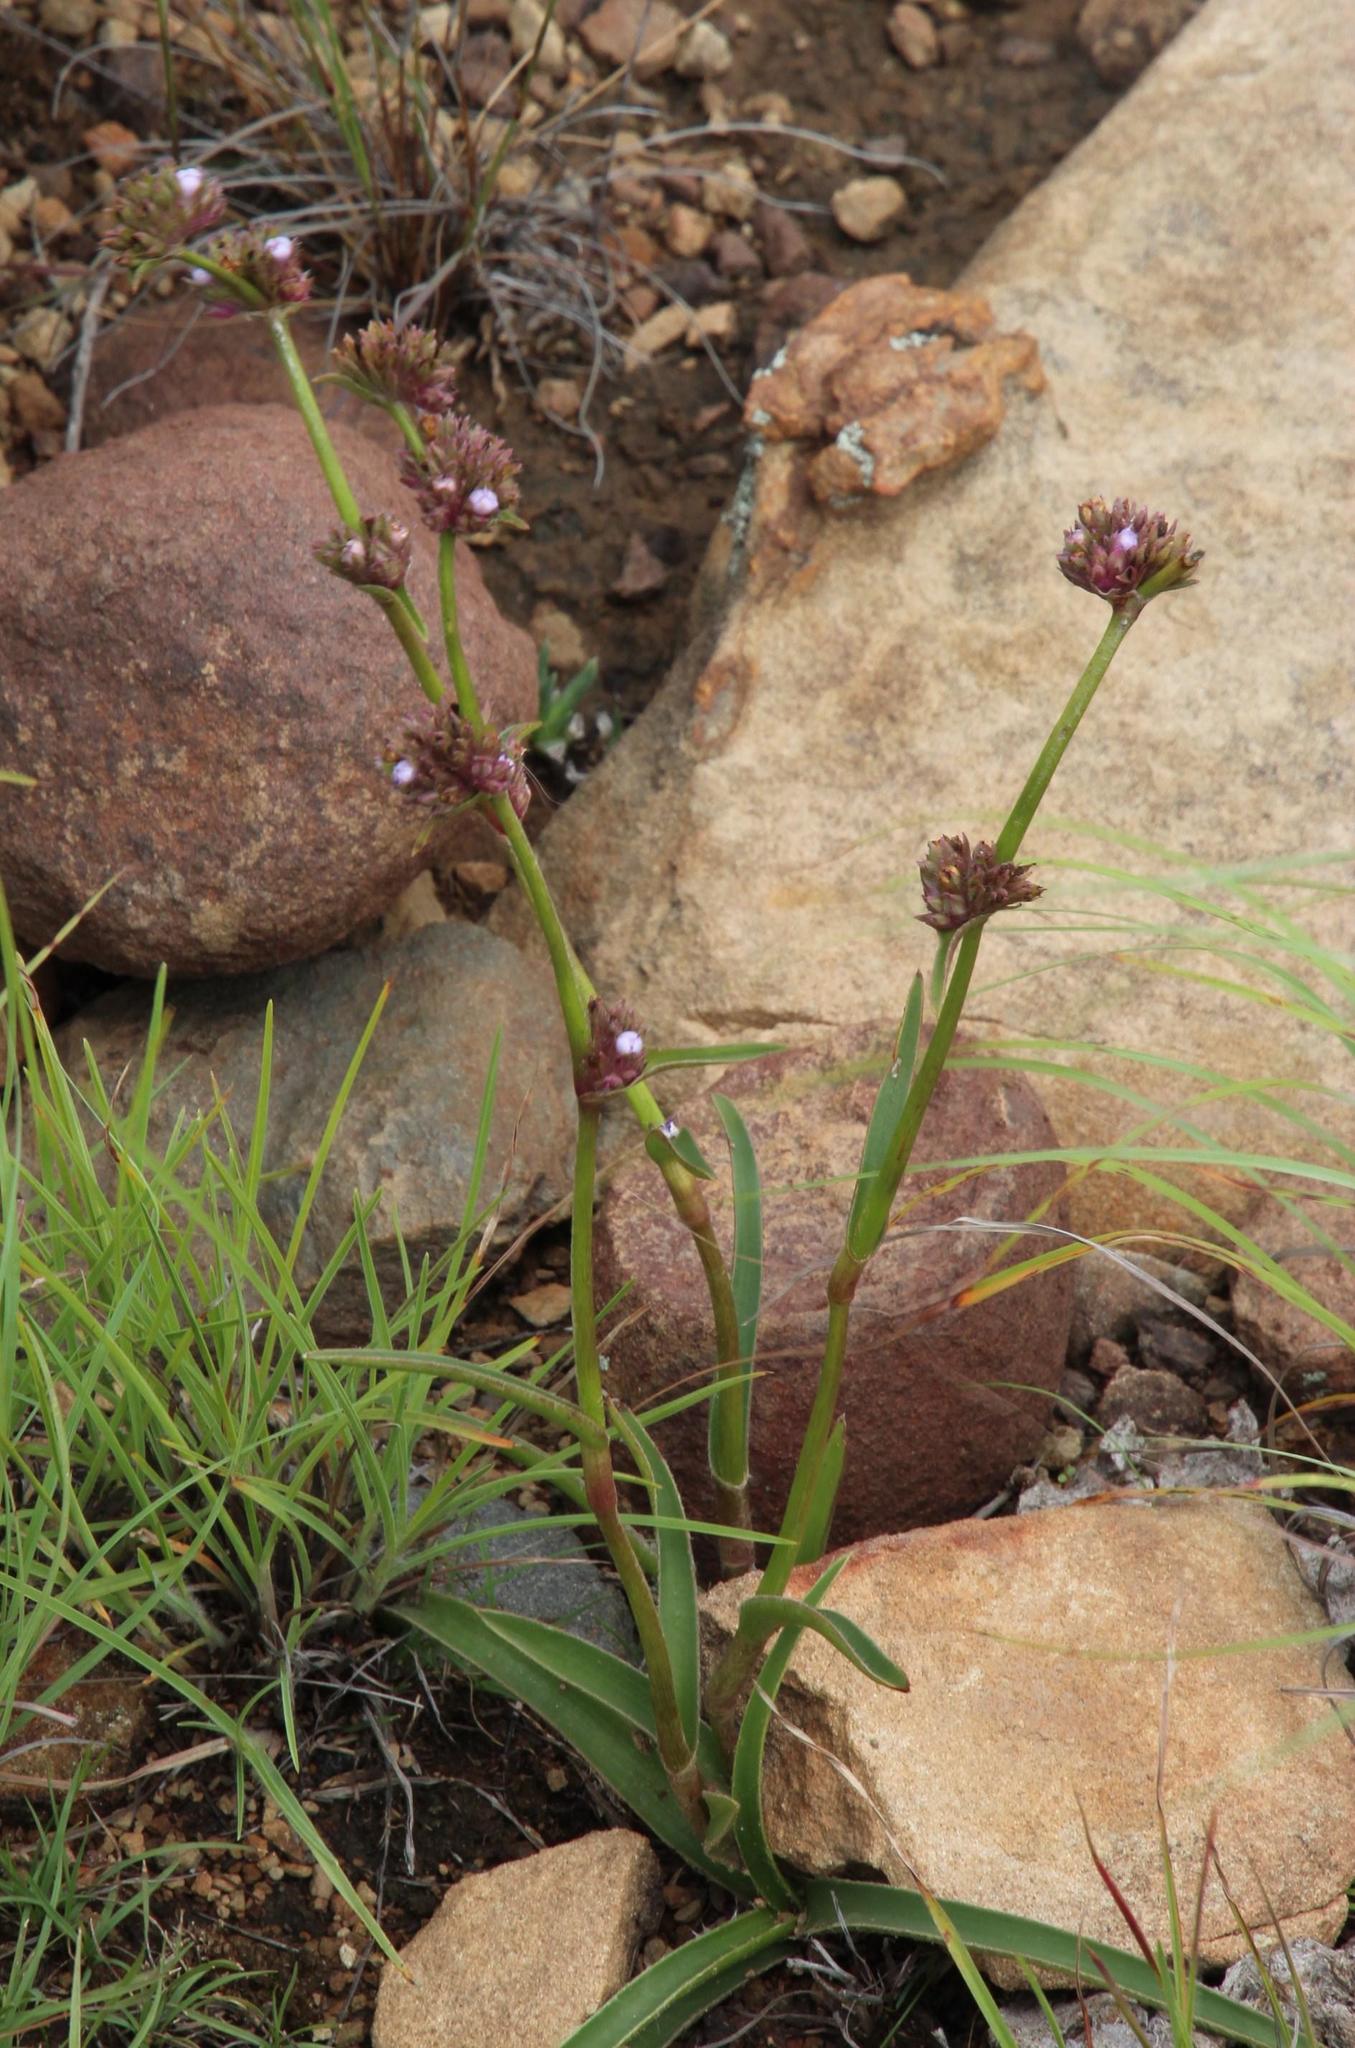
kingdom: Plantae
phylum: Tracheophyta
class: Liliopsida
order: Commelinales
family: Commelinaceae
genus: Cyanotis
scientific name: Cyanotis speciosa
